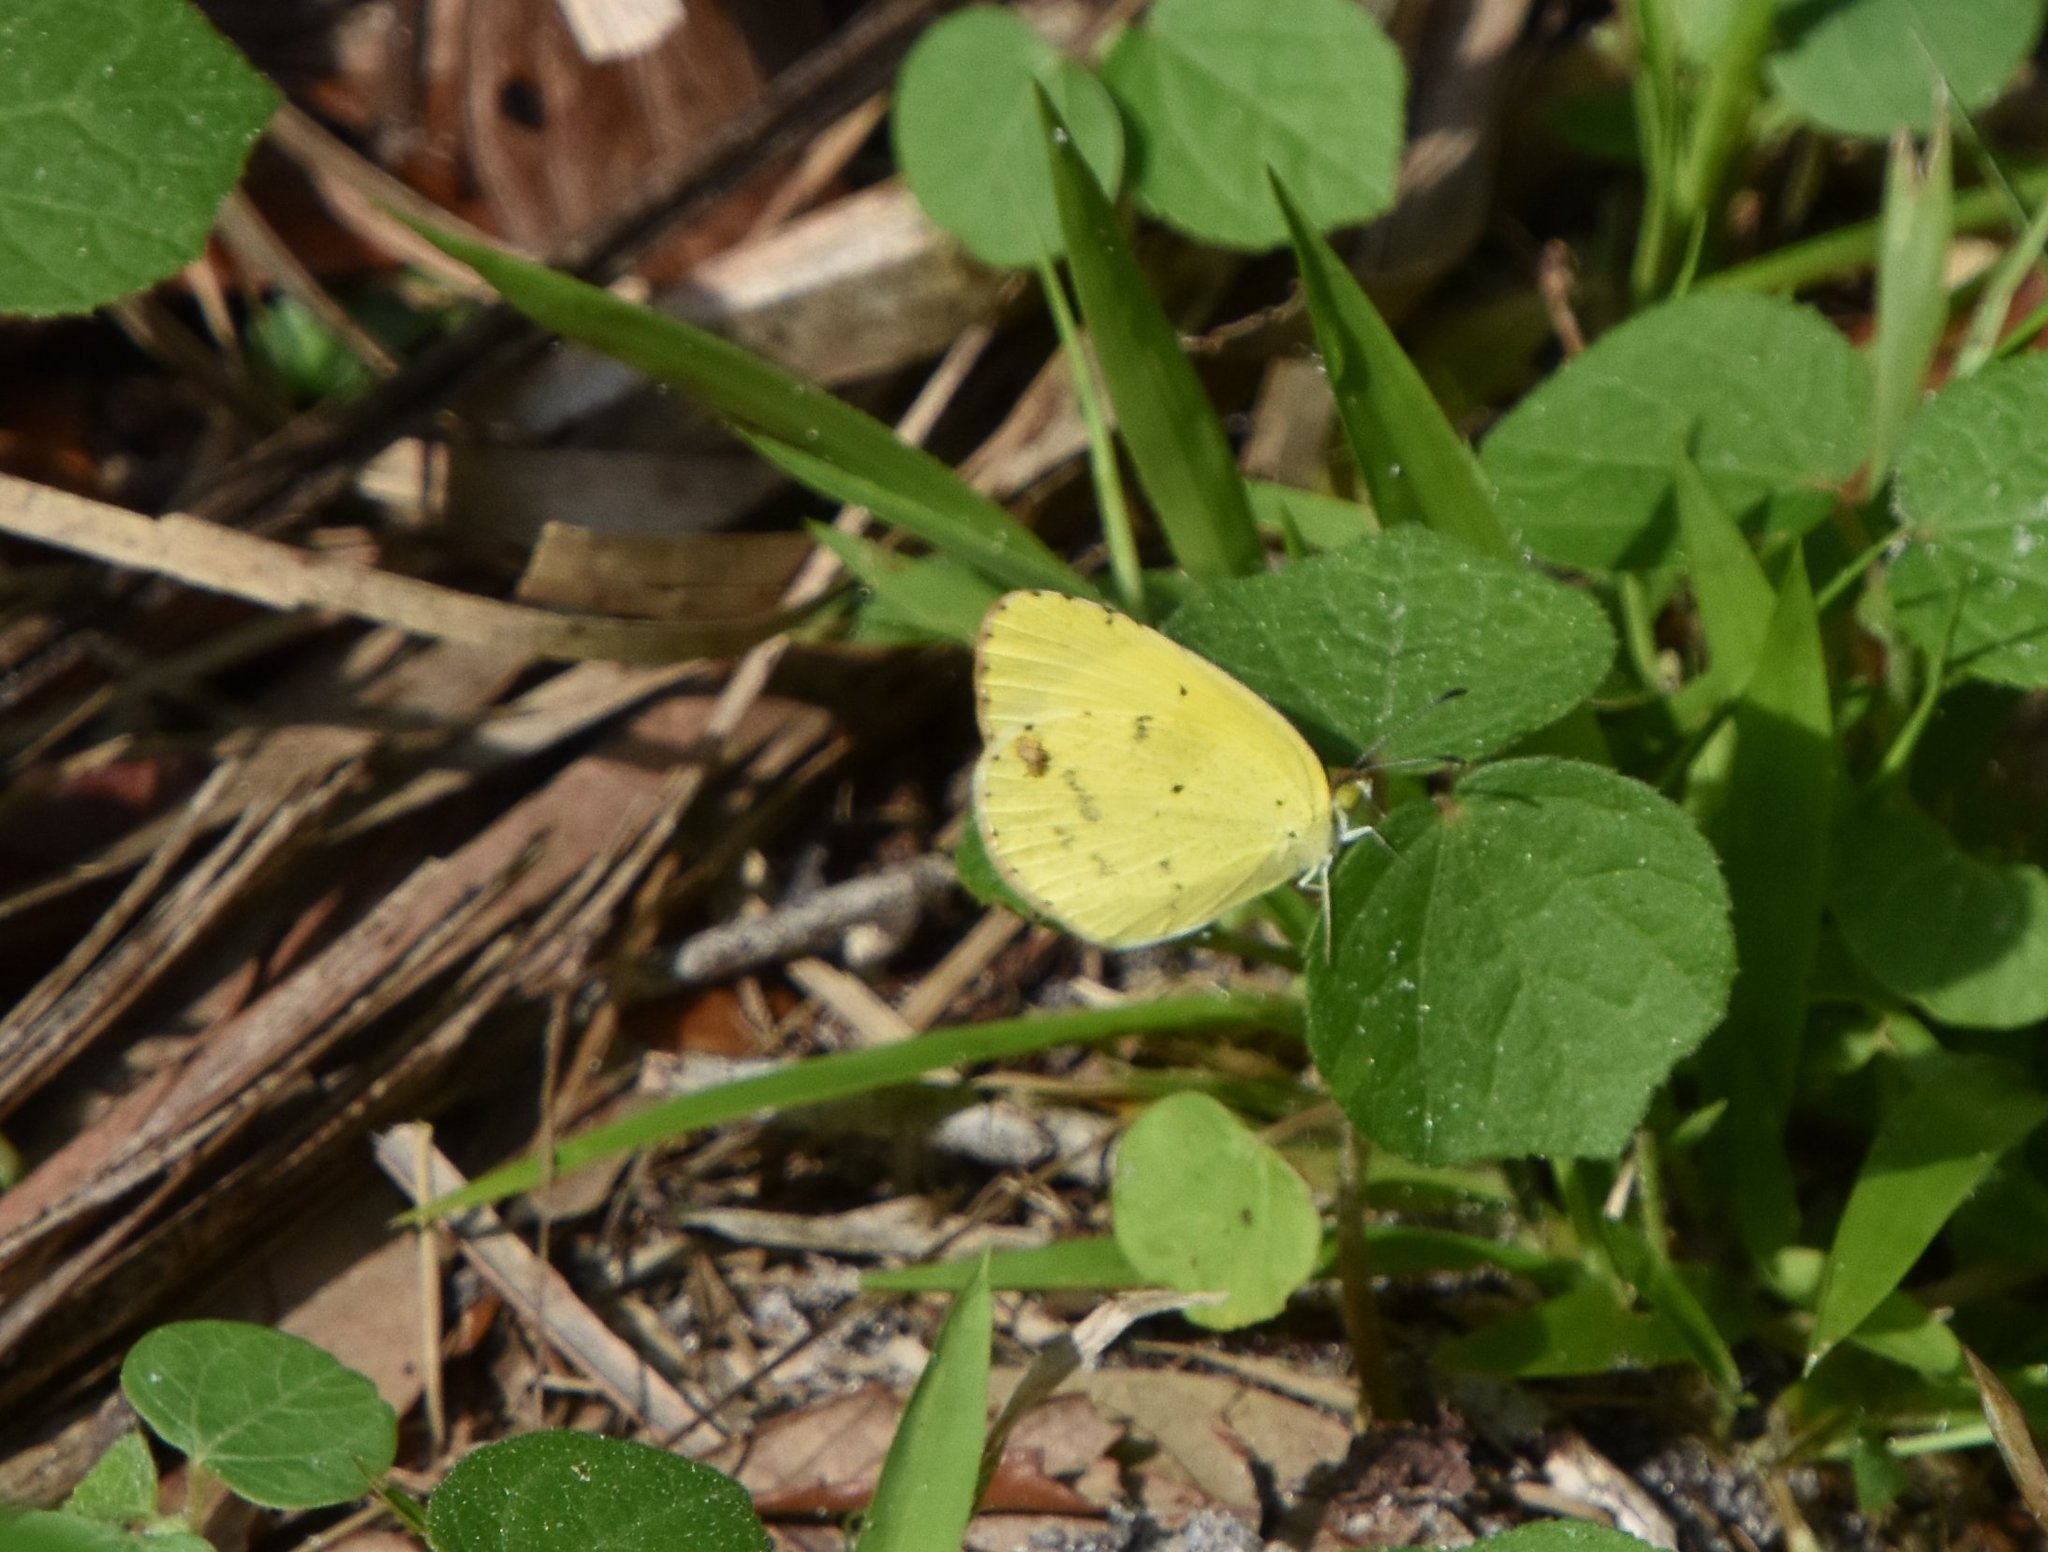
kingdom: Animalia
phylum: Arthropoda
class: Insecta
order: Lepidoptera
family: Pieridae
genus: Pyrisitia
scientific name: Pyrisitia lisa
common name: Little yellow
